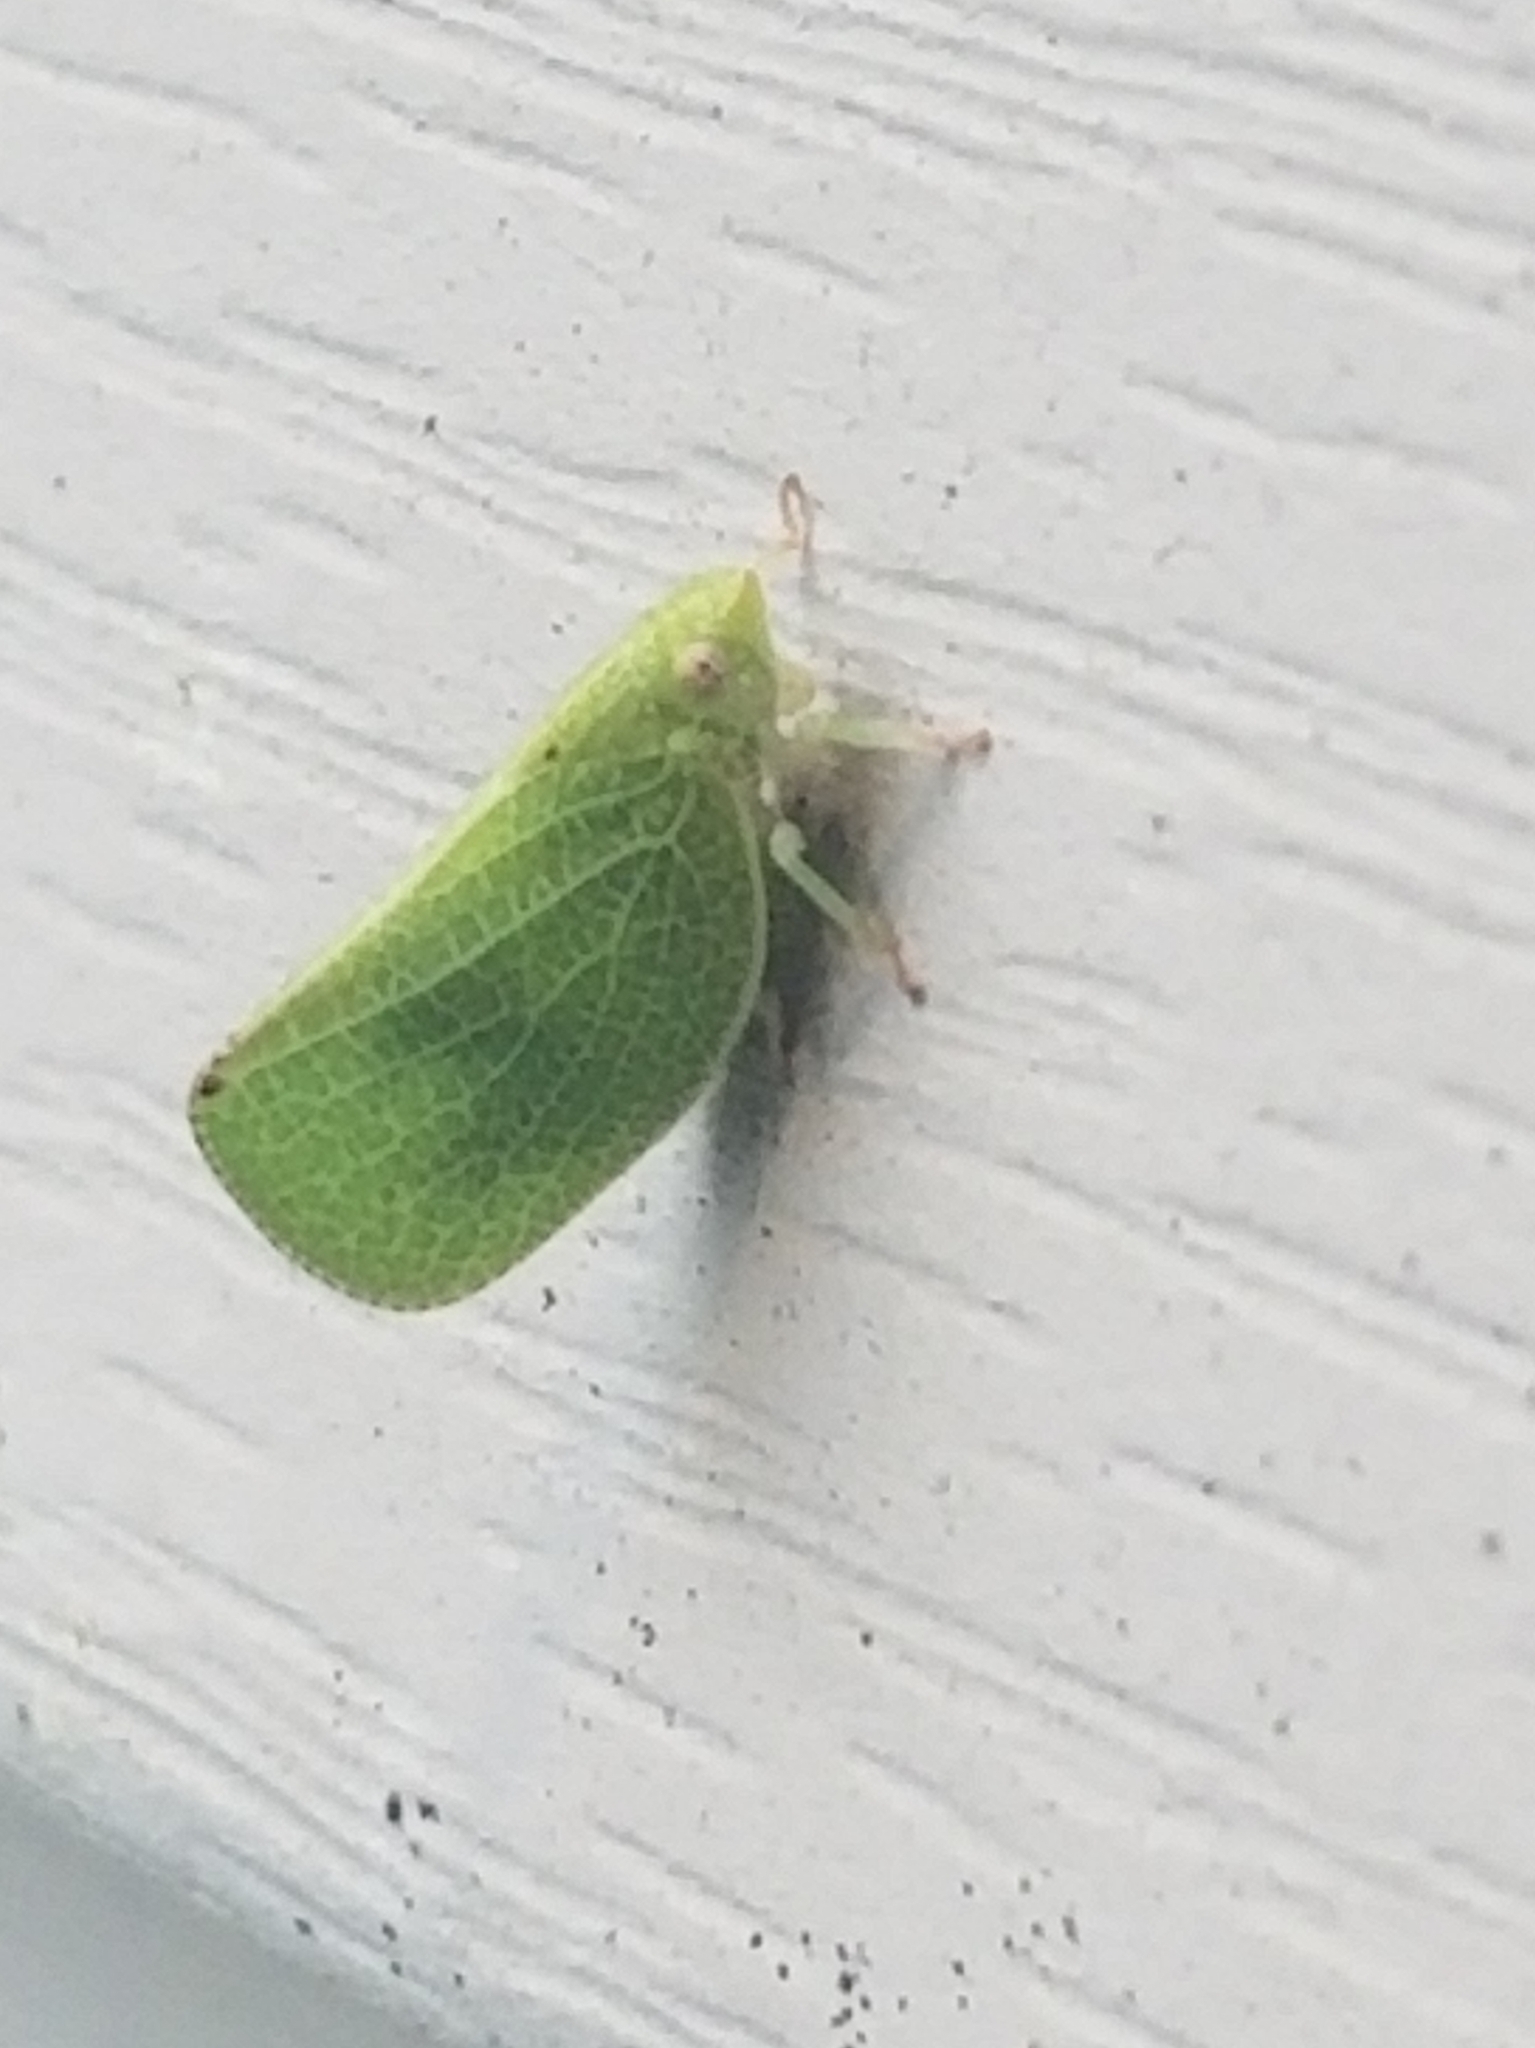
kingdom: Animalia
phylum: Arthropoda
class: Insecta
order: Hemiptera
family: Acanaloniidae
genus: Acanalonia
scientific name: Acanalonia conica
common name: Green cone-headed planthopper
